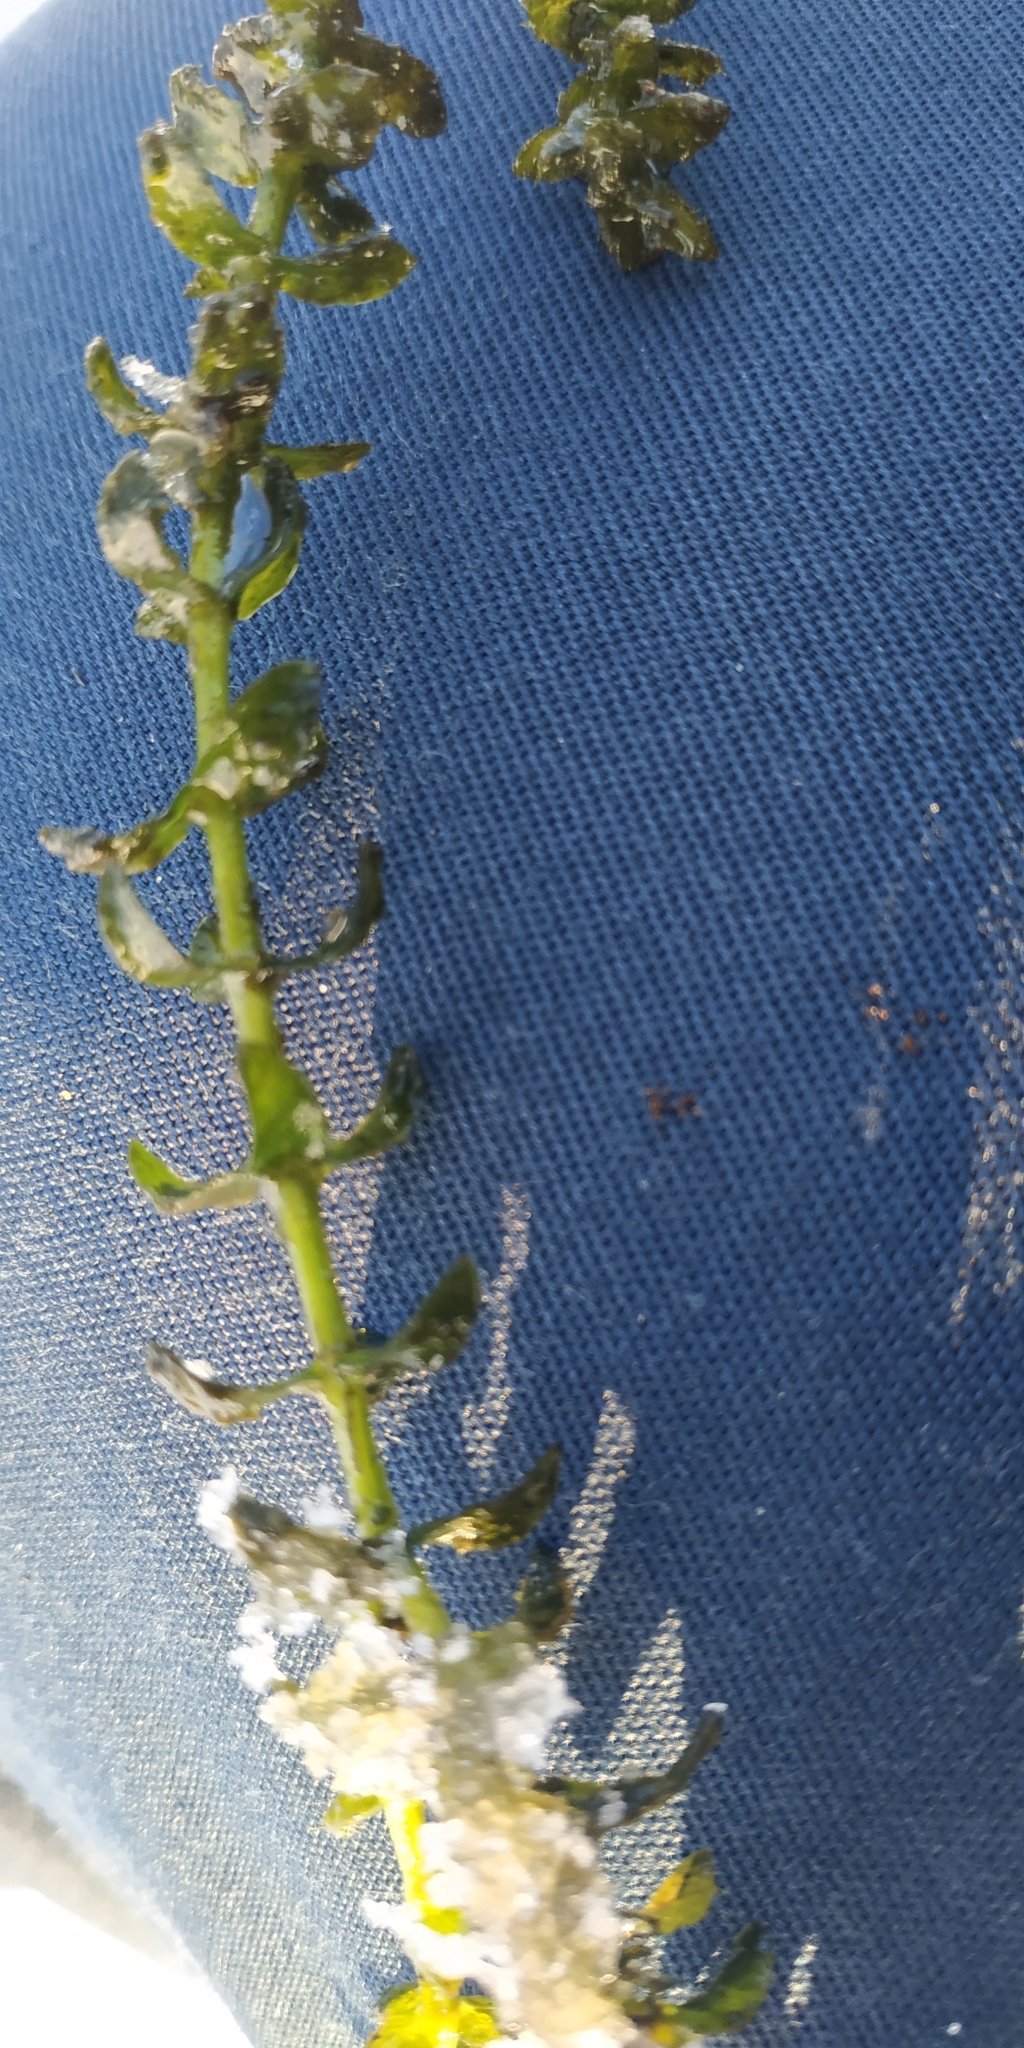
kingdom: Plantae
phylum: Tracheophyta
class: Liliopsida
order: Alismatales
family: Hydrocharitaceae
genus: Elodea
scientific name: Elodea canadensis
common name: Canadian waterweed
